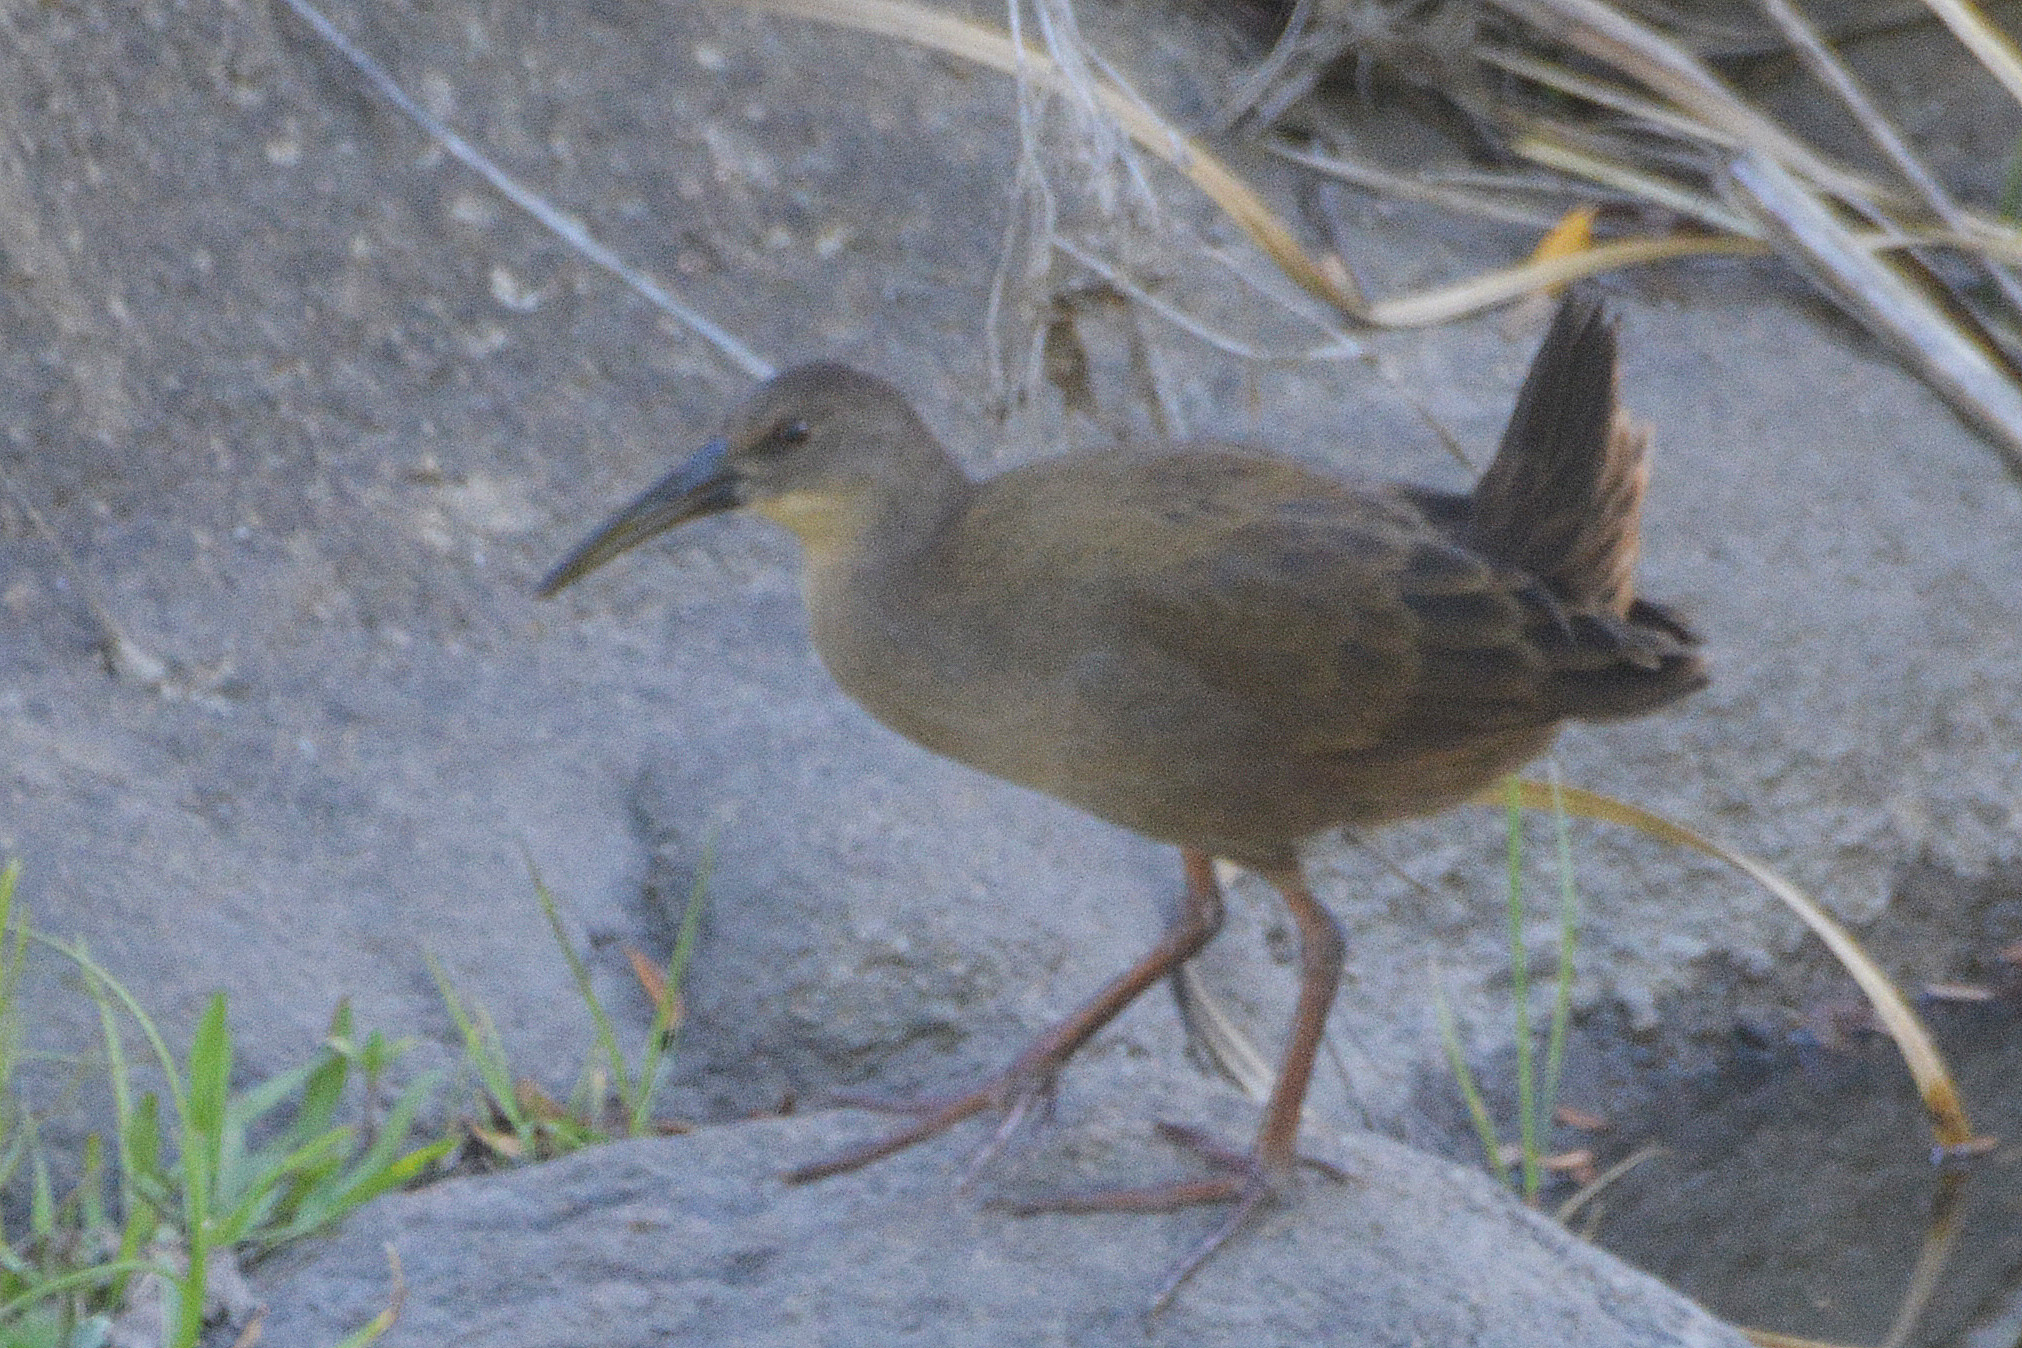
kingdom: Animalia
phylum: Chordata
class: Aves
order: Gruiformes
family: Rallidae
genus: Pardirallus
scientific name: Pardirallus sanguinolentus
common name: Plumbeous rail
